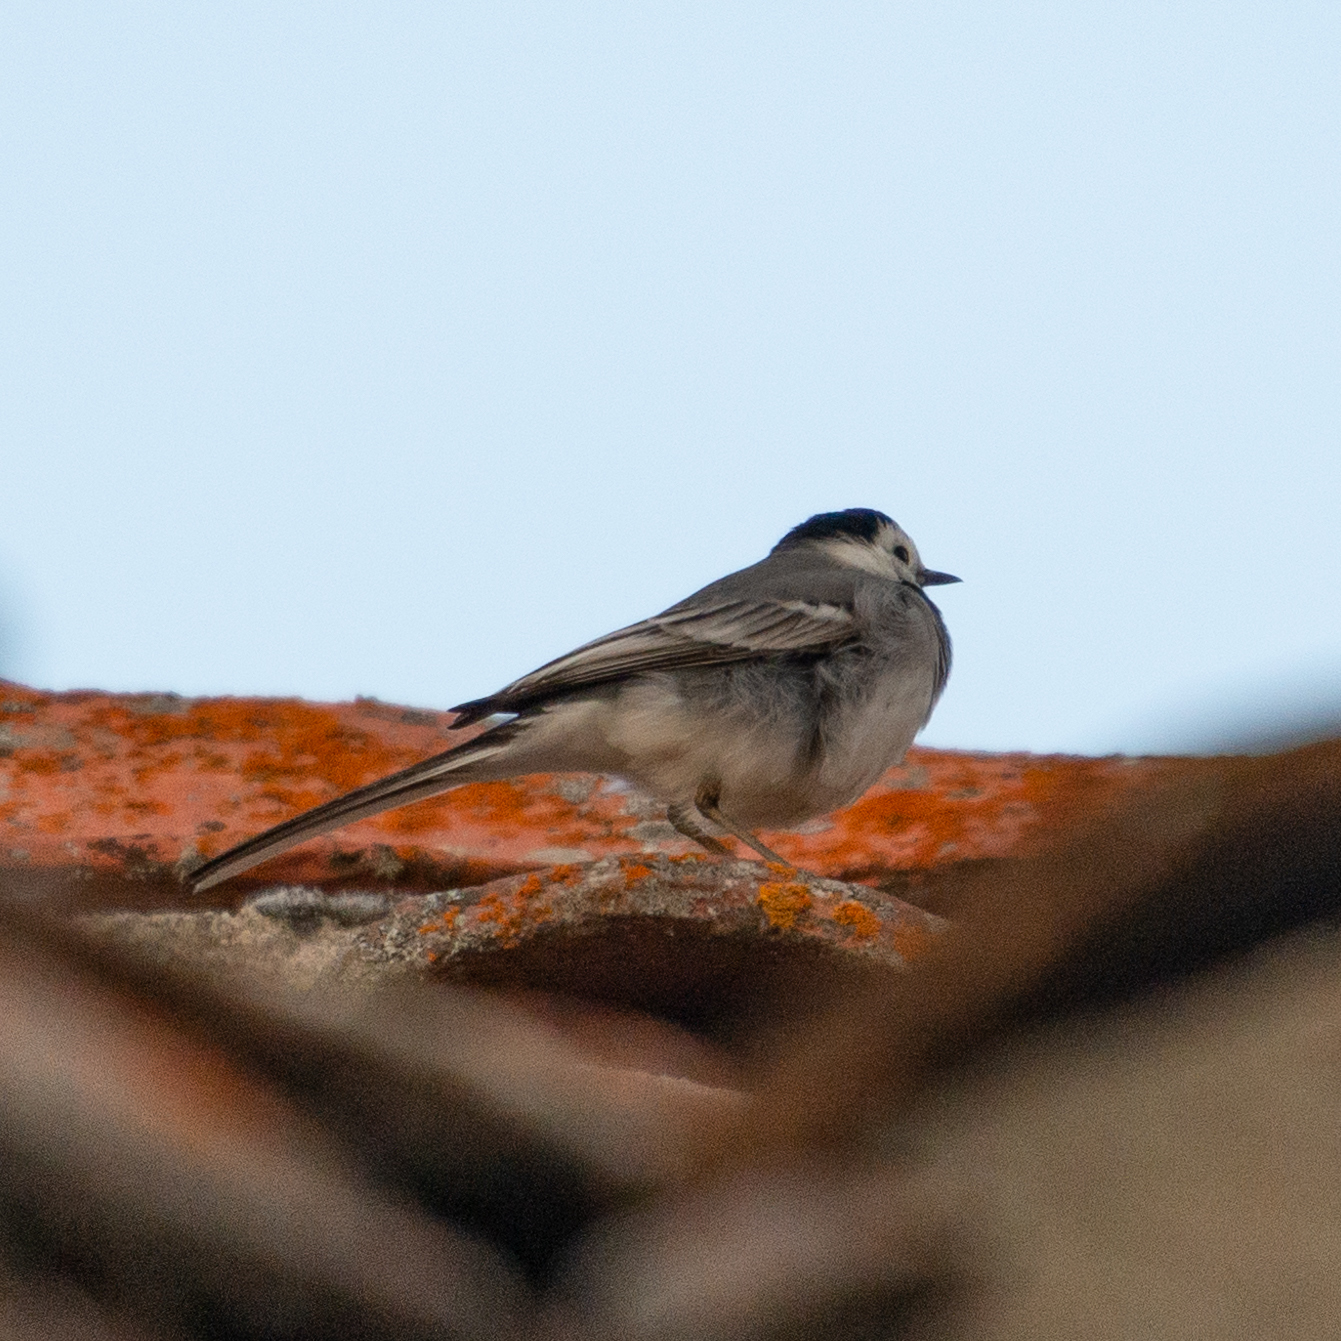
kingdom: Animalia
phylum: Chordata
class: Aves
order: Passeriformes
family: Motacillidae
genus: Motacilla
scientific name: Motacilla alba
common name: White wagtail
